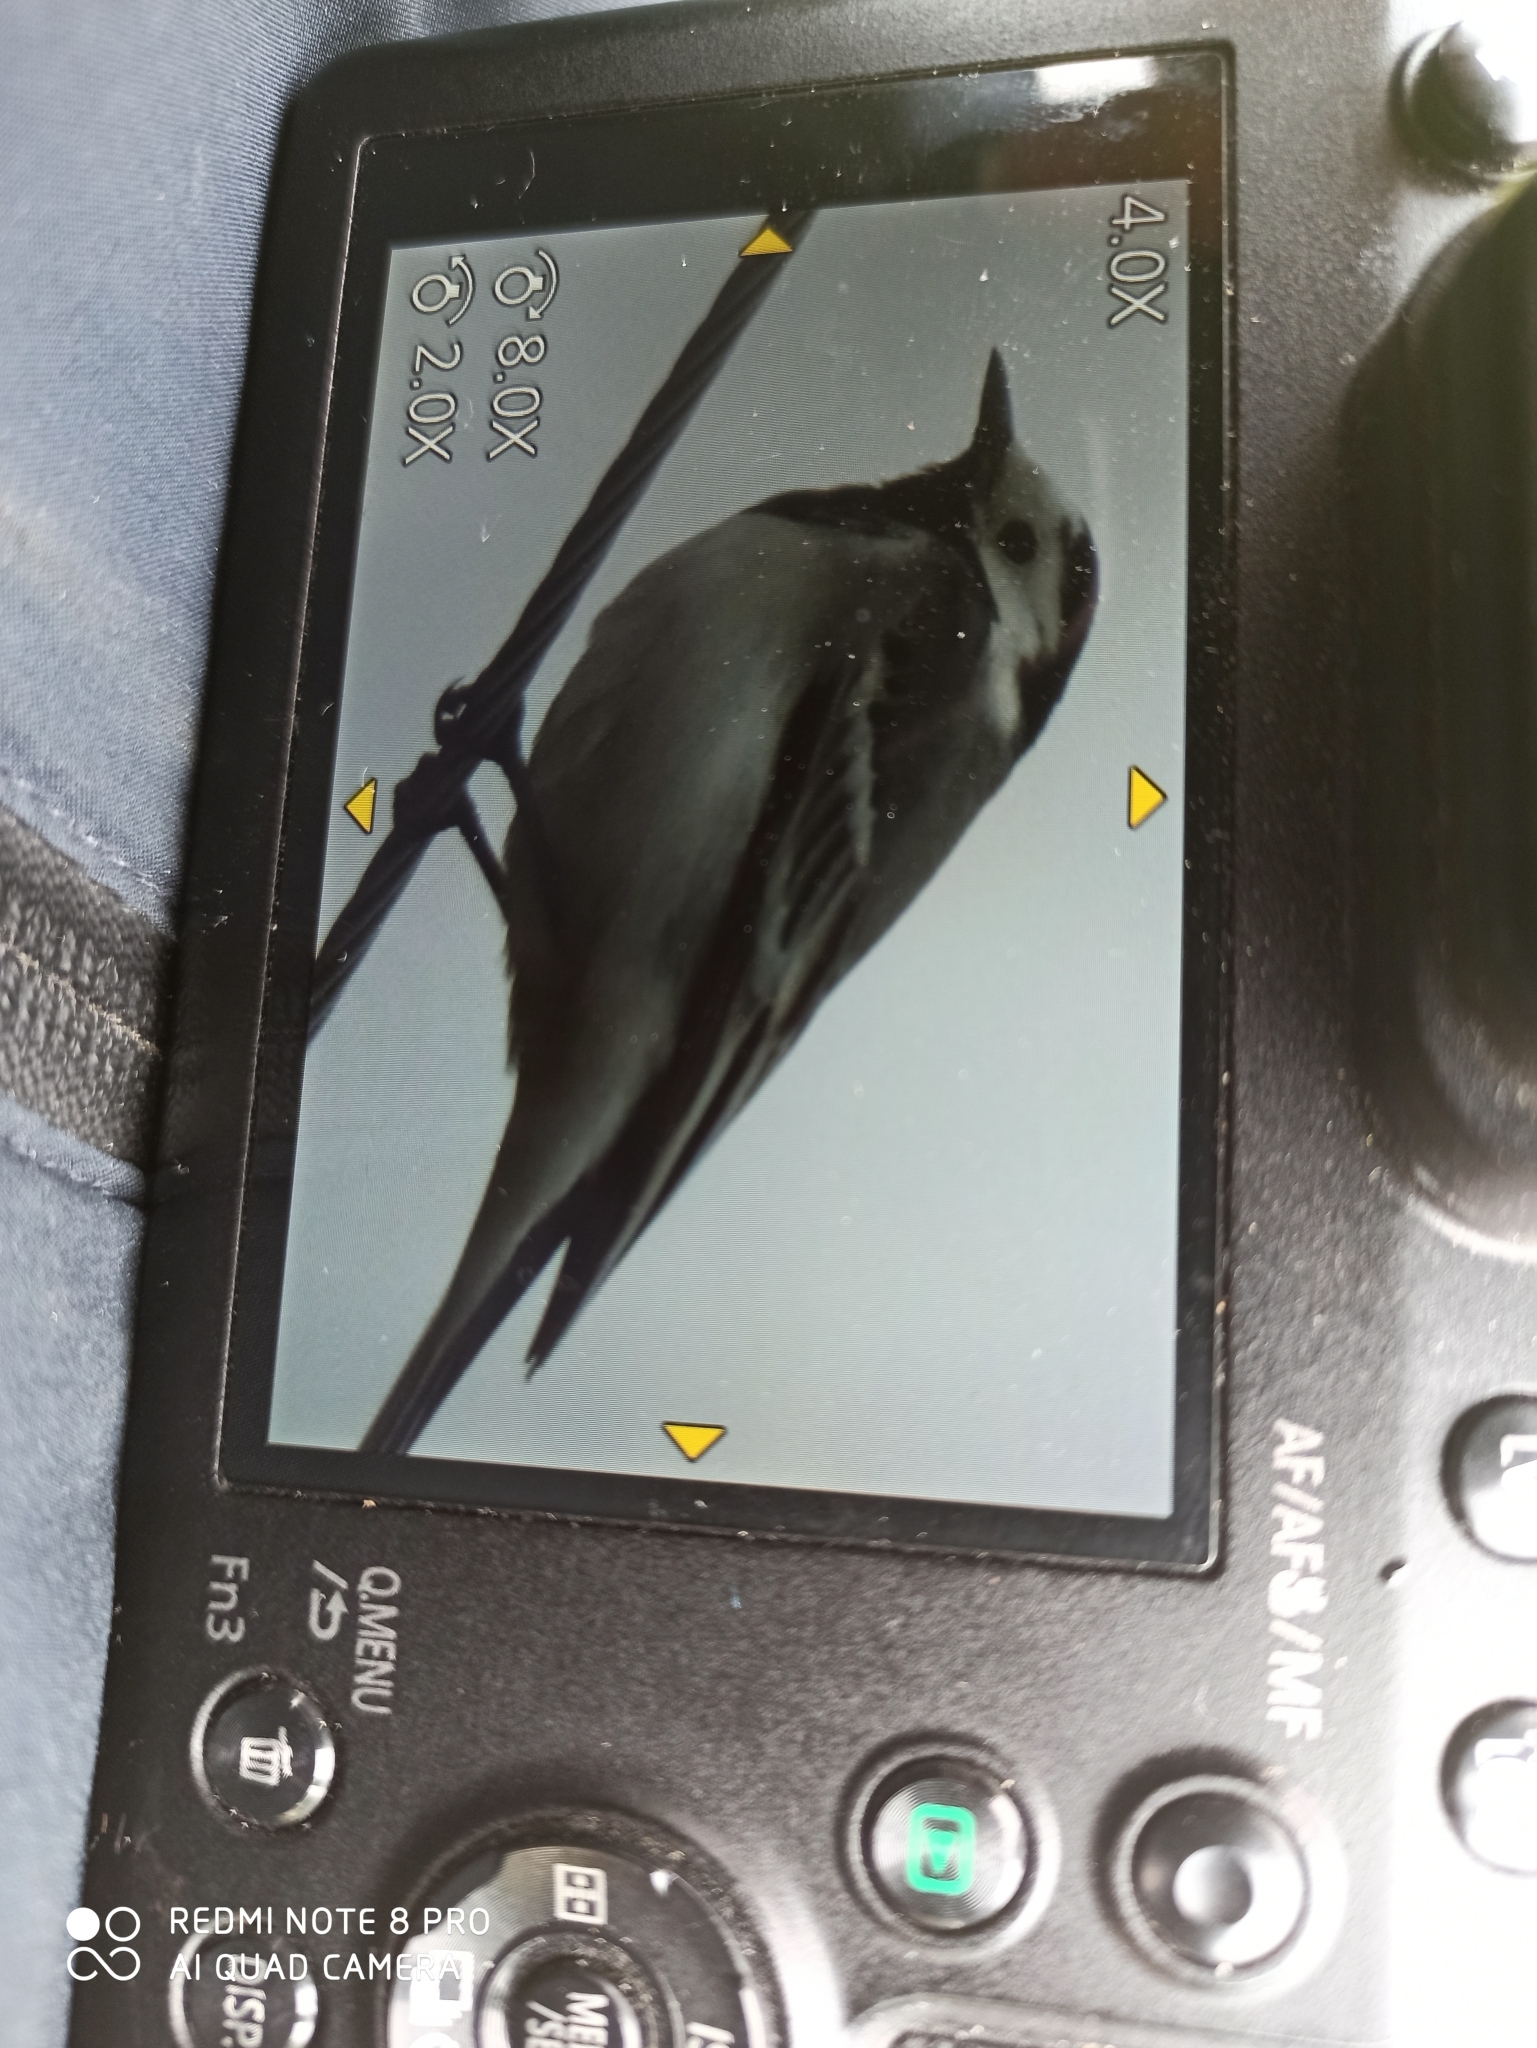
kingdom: Animalia
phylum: Chordata
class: Aves
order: Passeriformes
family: Motacillidae
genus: Motacilla
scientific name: Motacilla alba
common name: White wagtail
